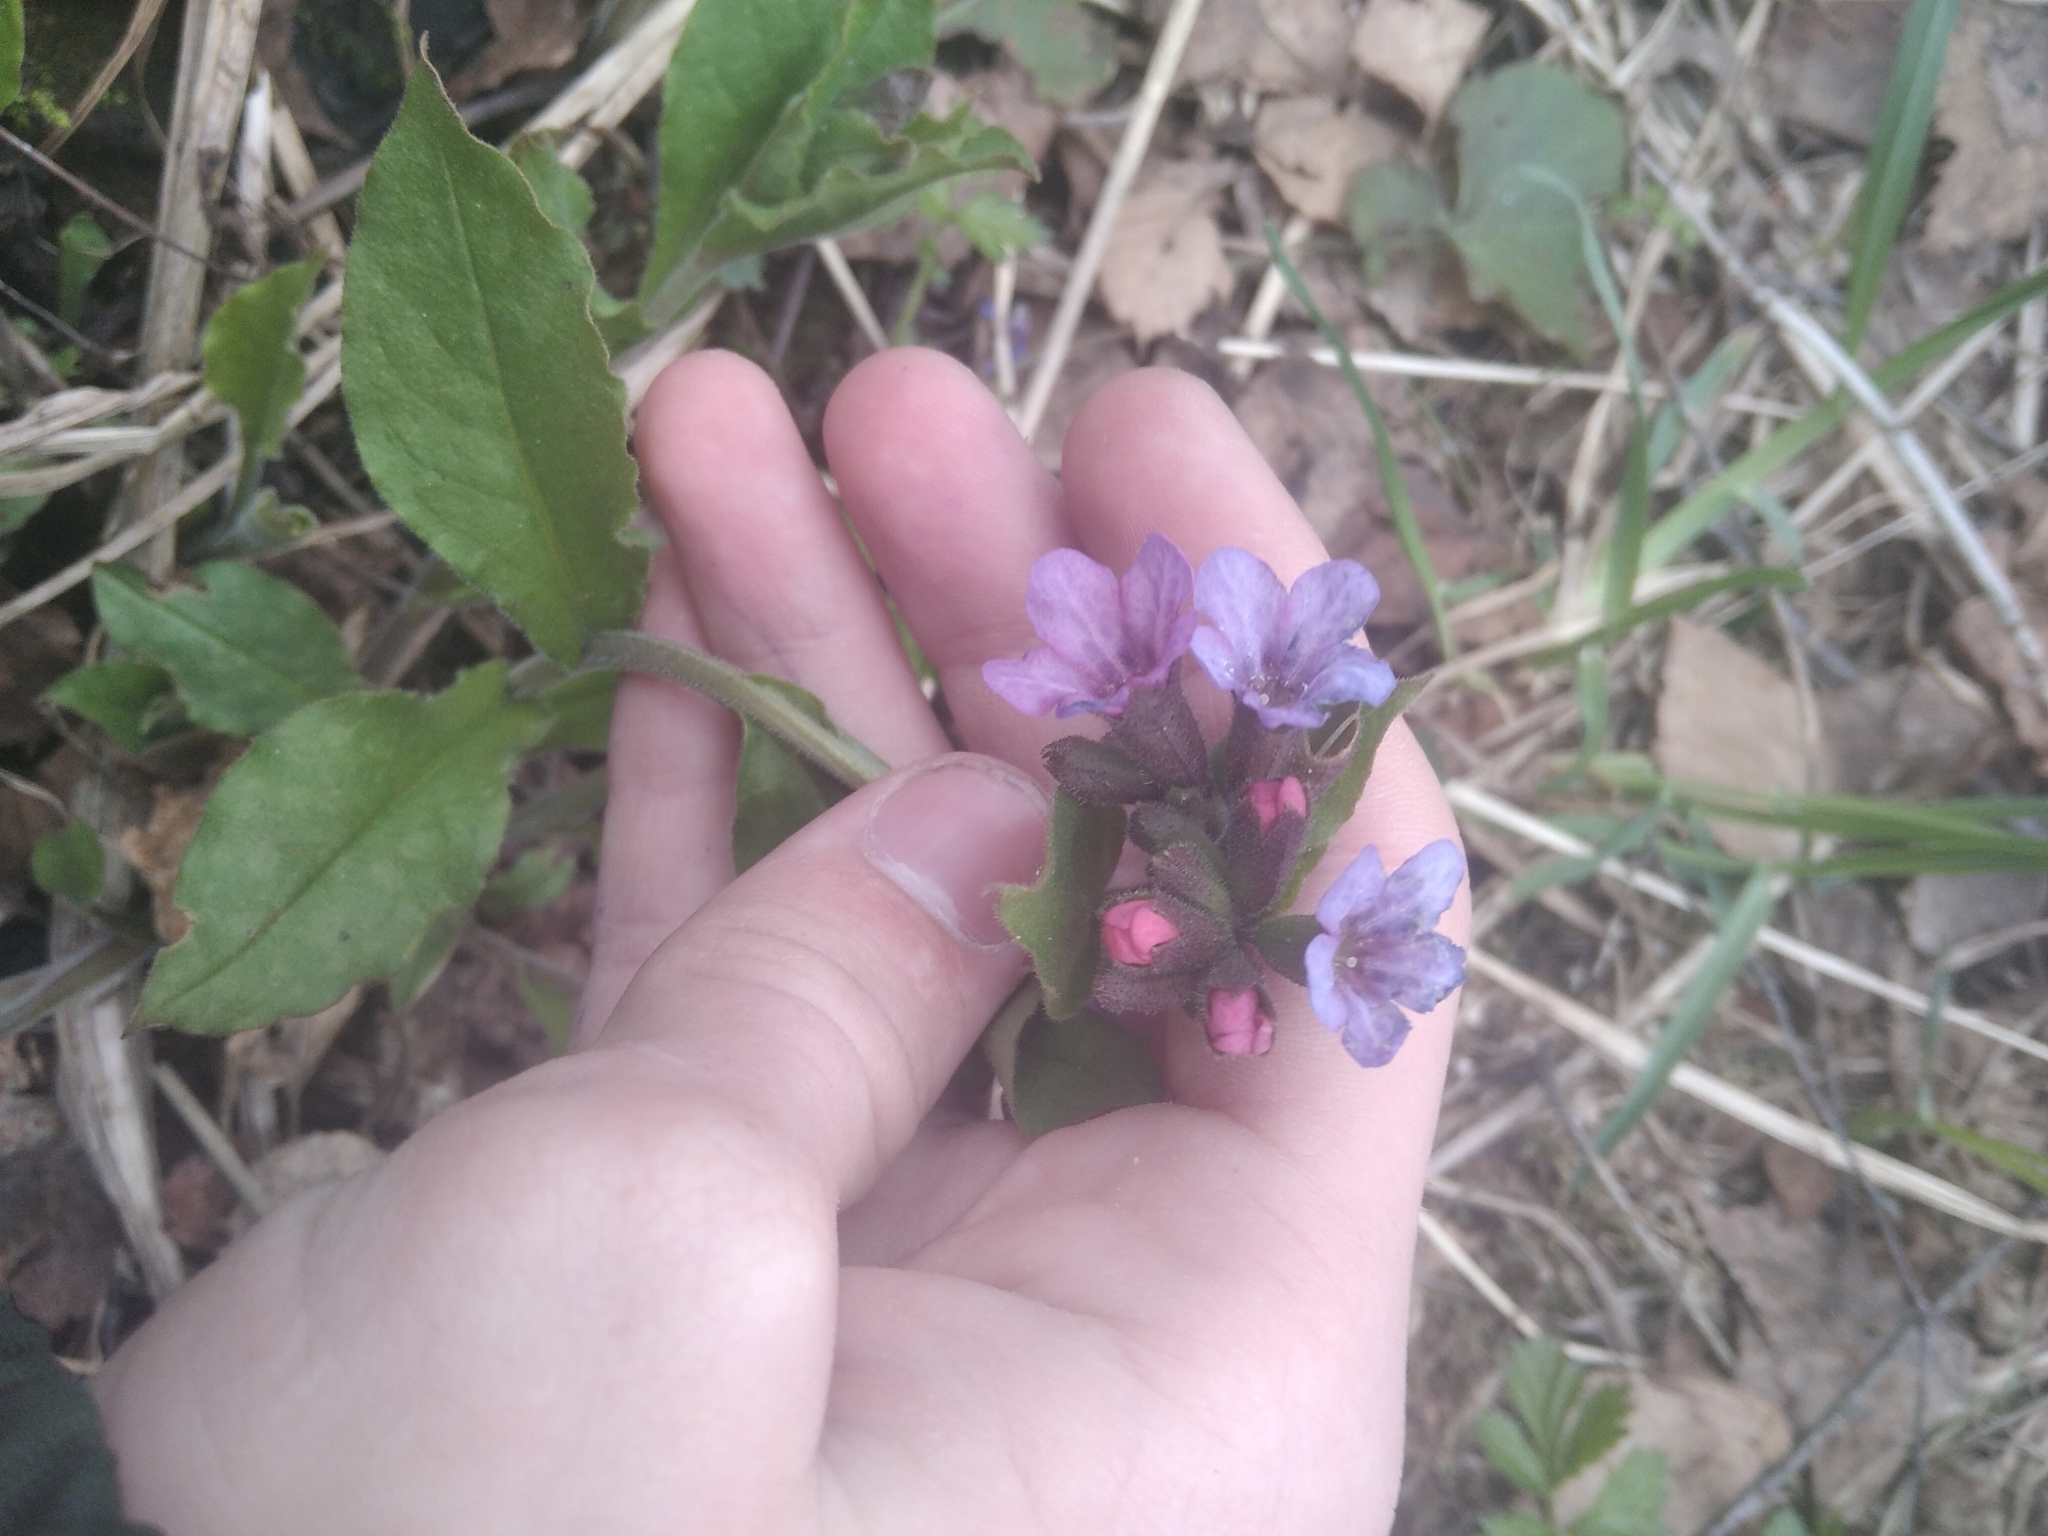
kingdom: Plantae
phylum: Tracheophyta
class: Magnoliopsida
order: Boraginales
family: Boraginaceae
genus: Pulmonaria
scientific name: Pulmonaria obscura
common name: Suffolk lungwort
